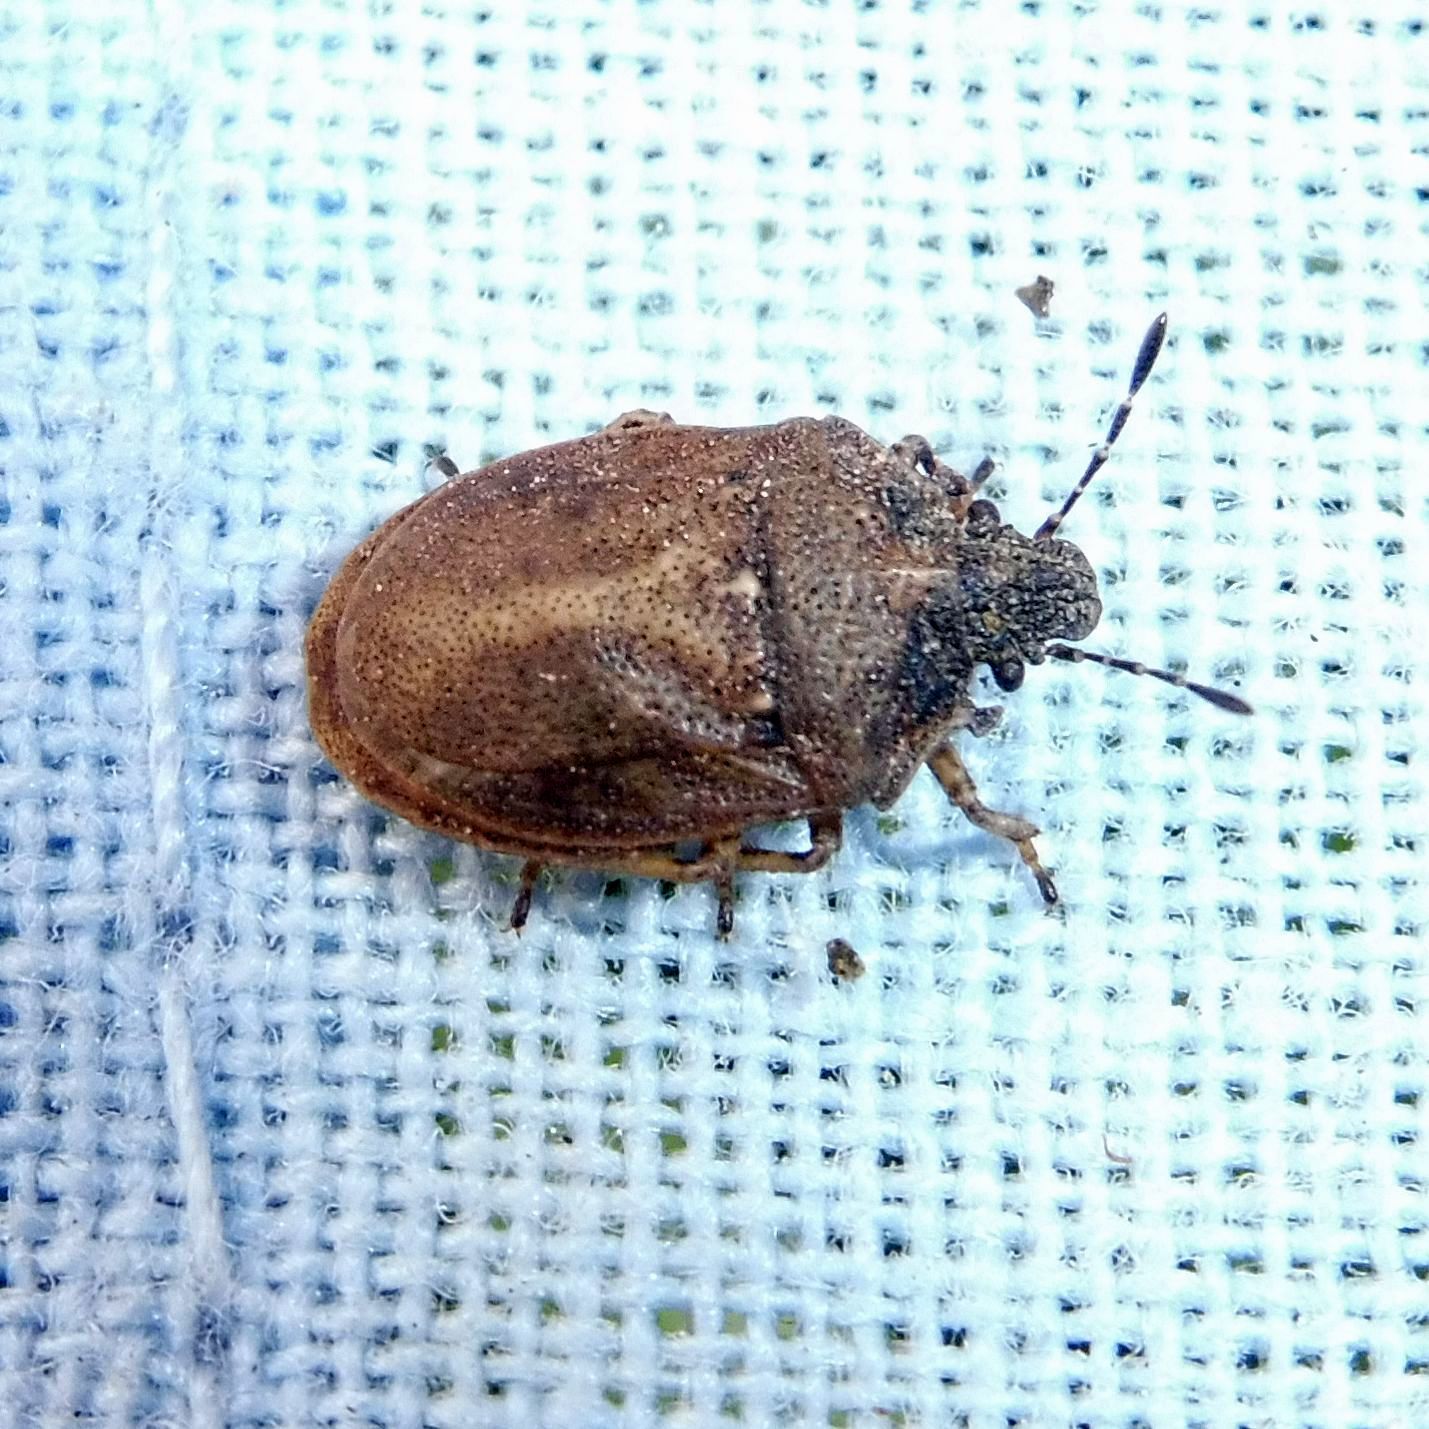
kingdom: Animalia
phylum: Arthropoda
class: Insecta
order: Hemiptera
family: Pentatomidae
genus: Podops
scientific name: Podops inunctus
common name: Turtle bug
